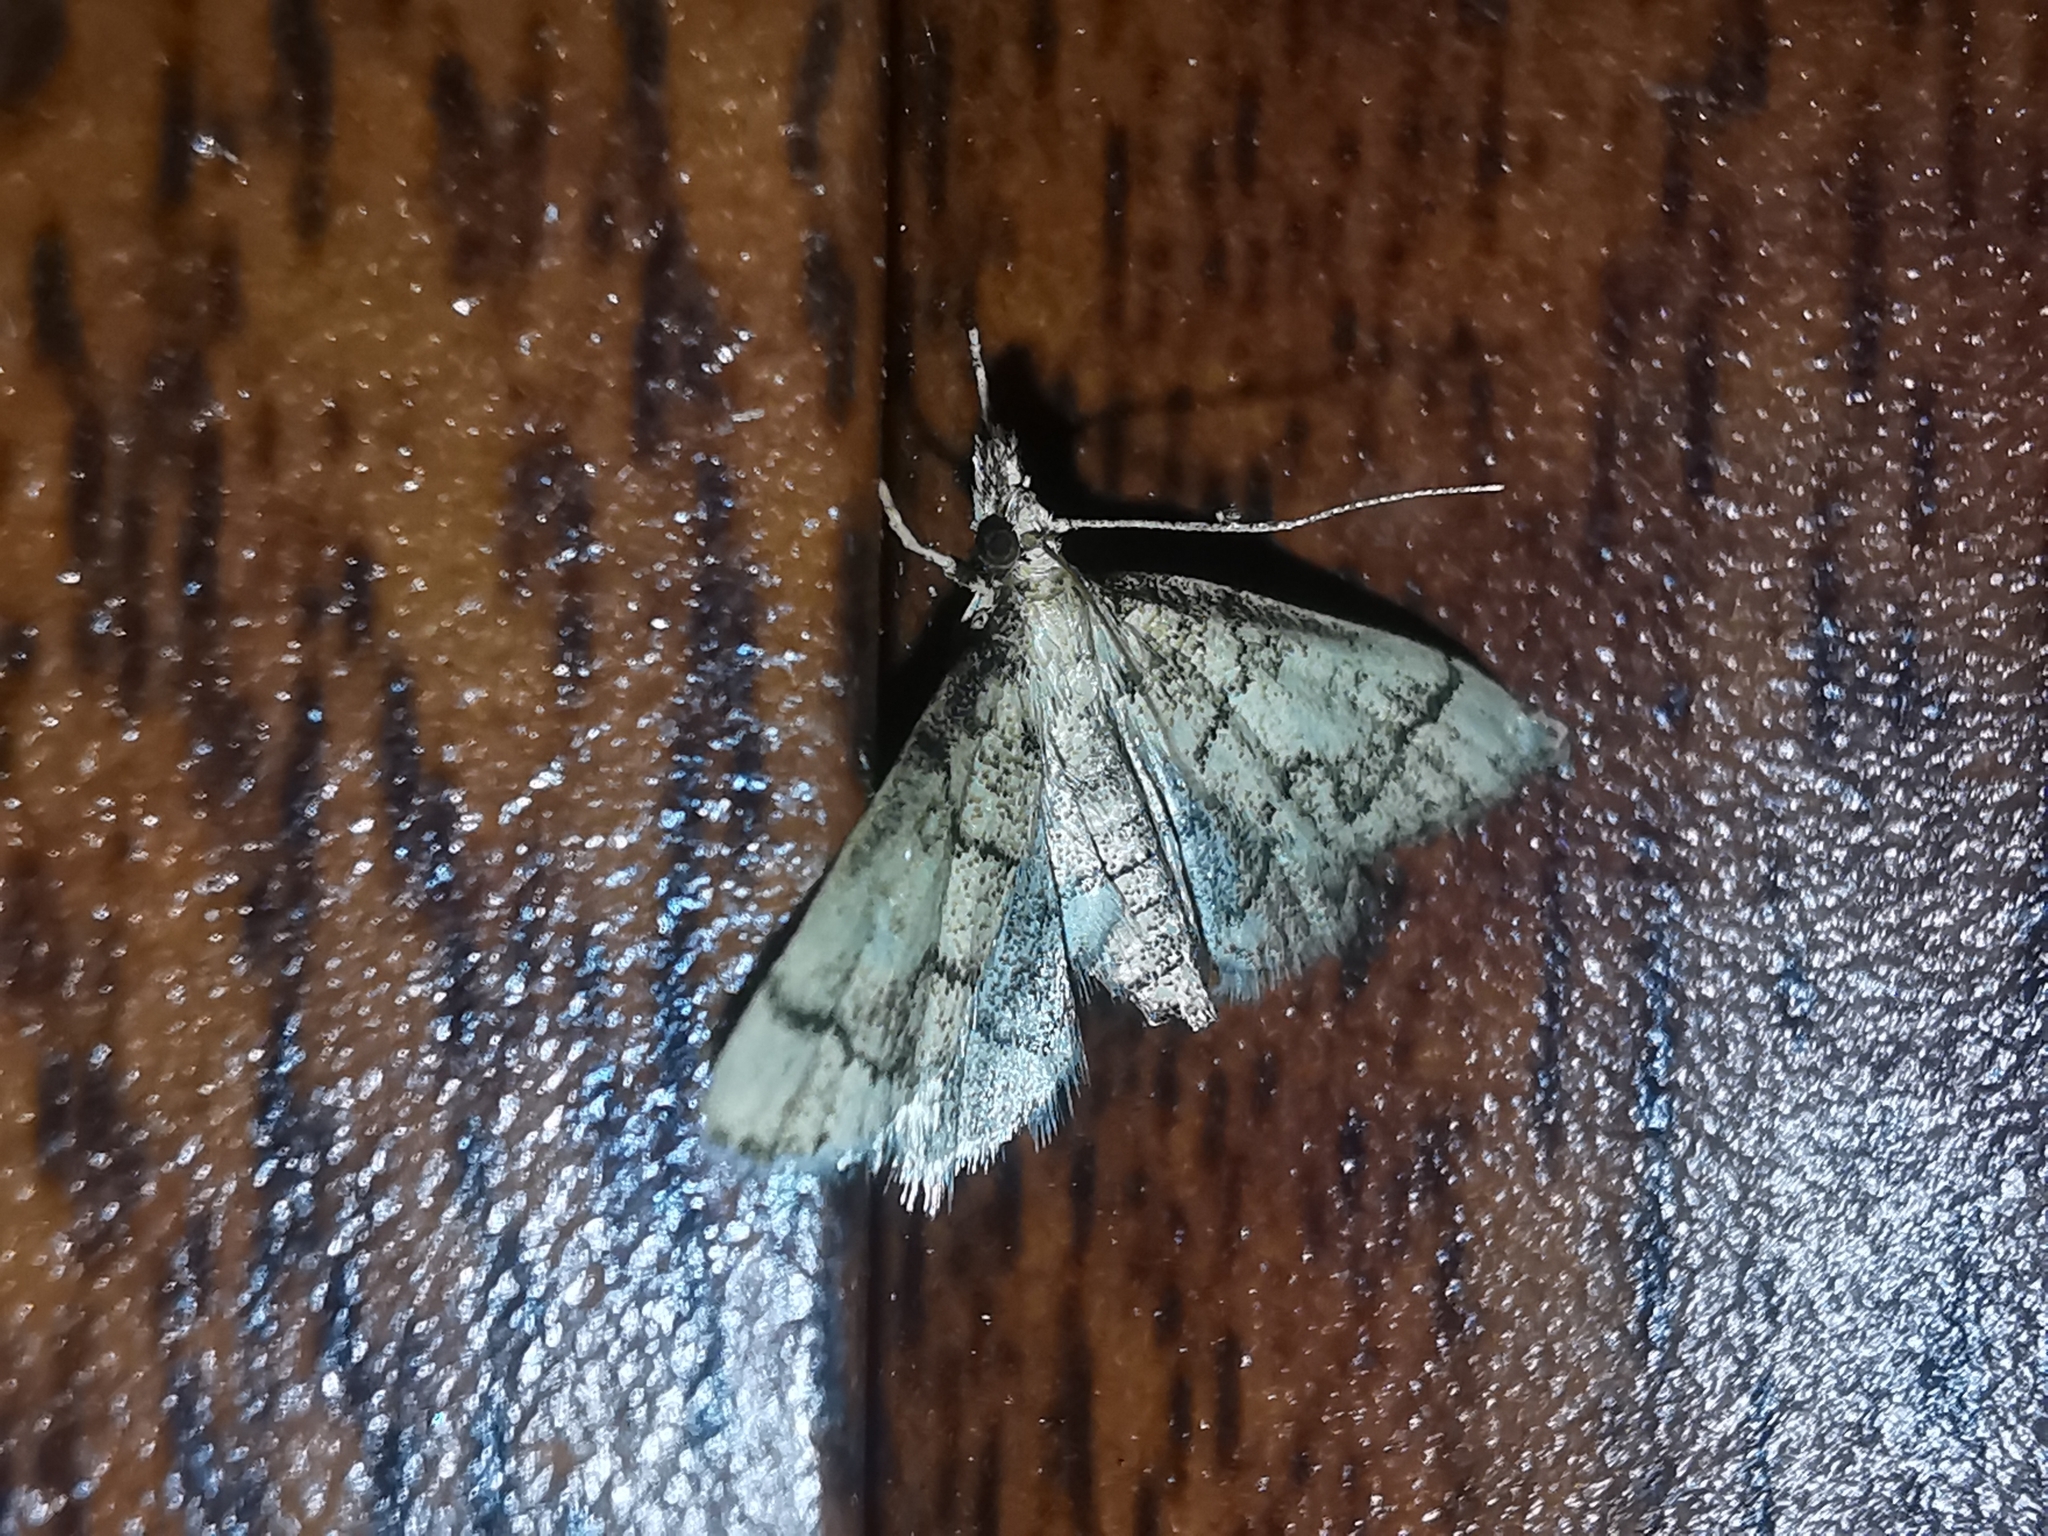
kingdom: Animalia
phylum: Arthropoda
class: Insecta
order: Lepidoptera
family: Crambidae
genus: Metasia
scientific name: Metasia ophialis
